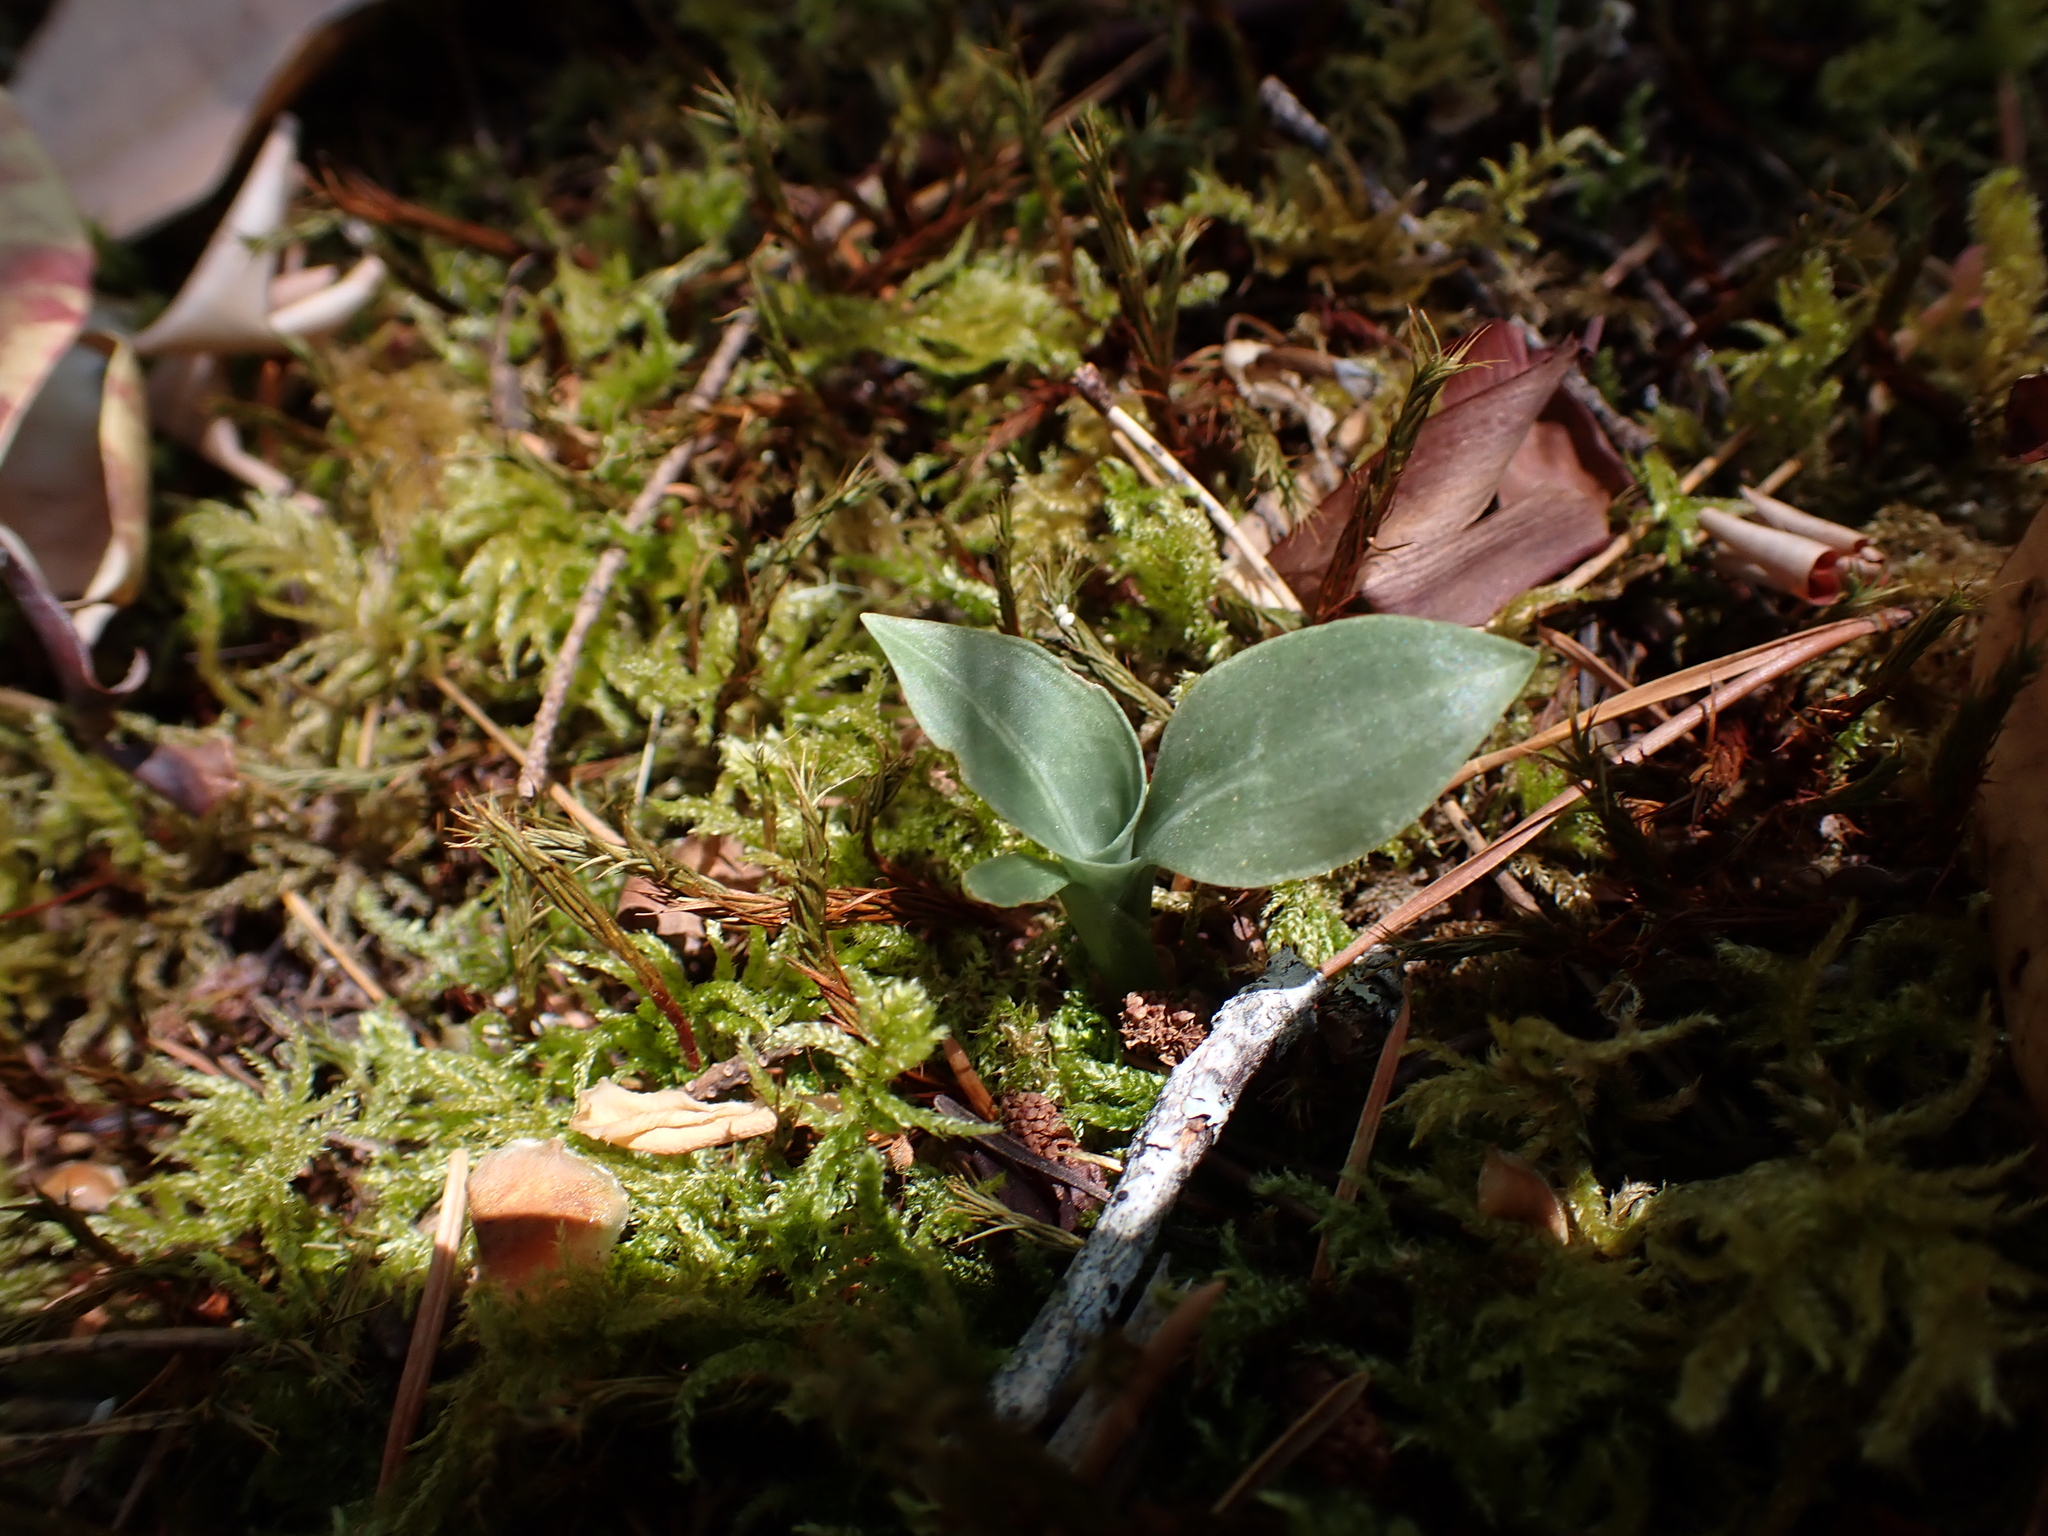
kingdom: Plantae
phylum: Tracheophyta
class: Liliopsida
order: Asparagales
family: Orchidaceae
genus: Goodyera
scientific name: Goodyera oblongifolia
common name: Giant rattlesnake-plantain
